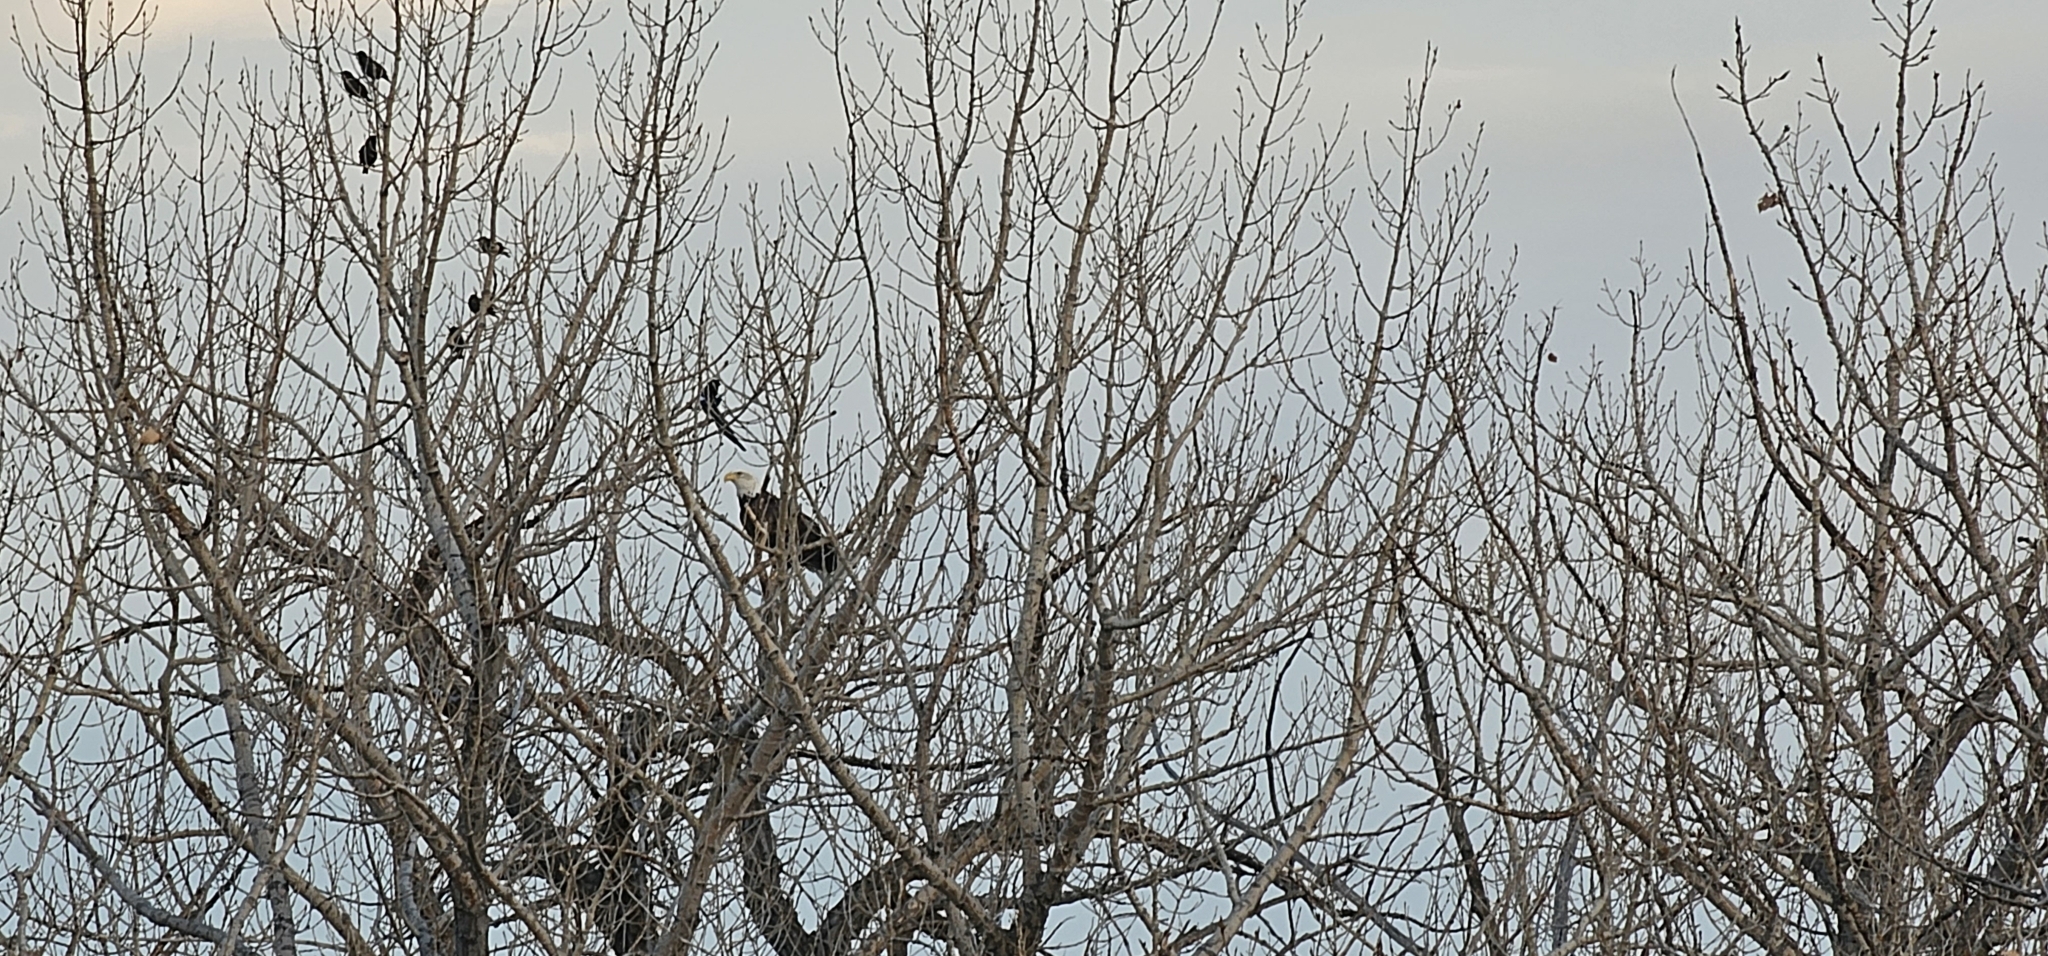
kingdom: Animalia
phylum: Chordata
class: Aves
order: Accipitriformes
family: Accipitridae
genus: Haliaeetus
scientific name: Haliaeetus leucocephalus
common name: Bald eagle
